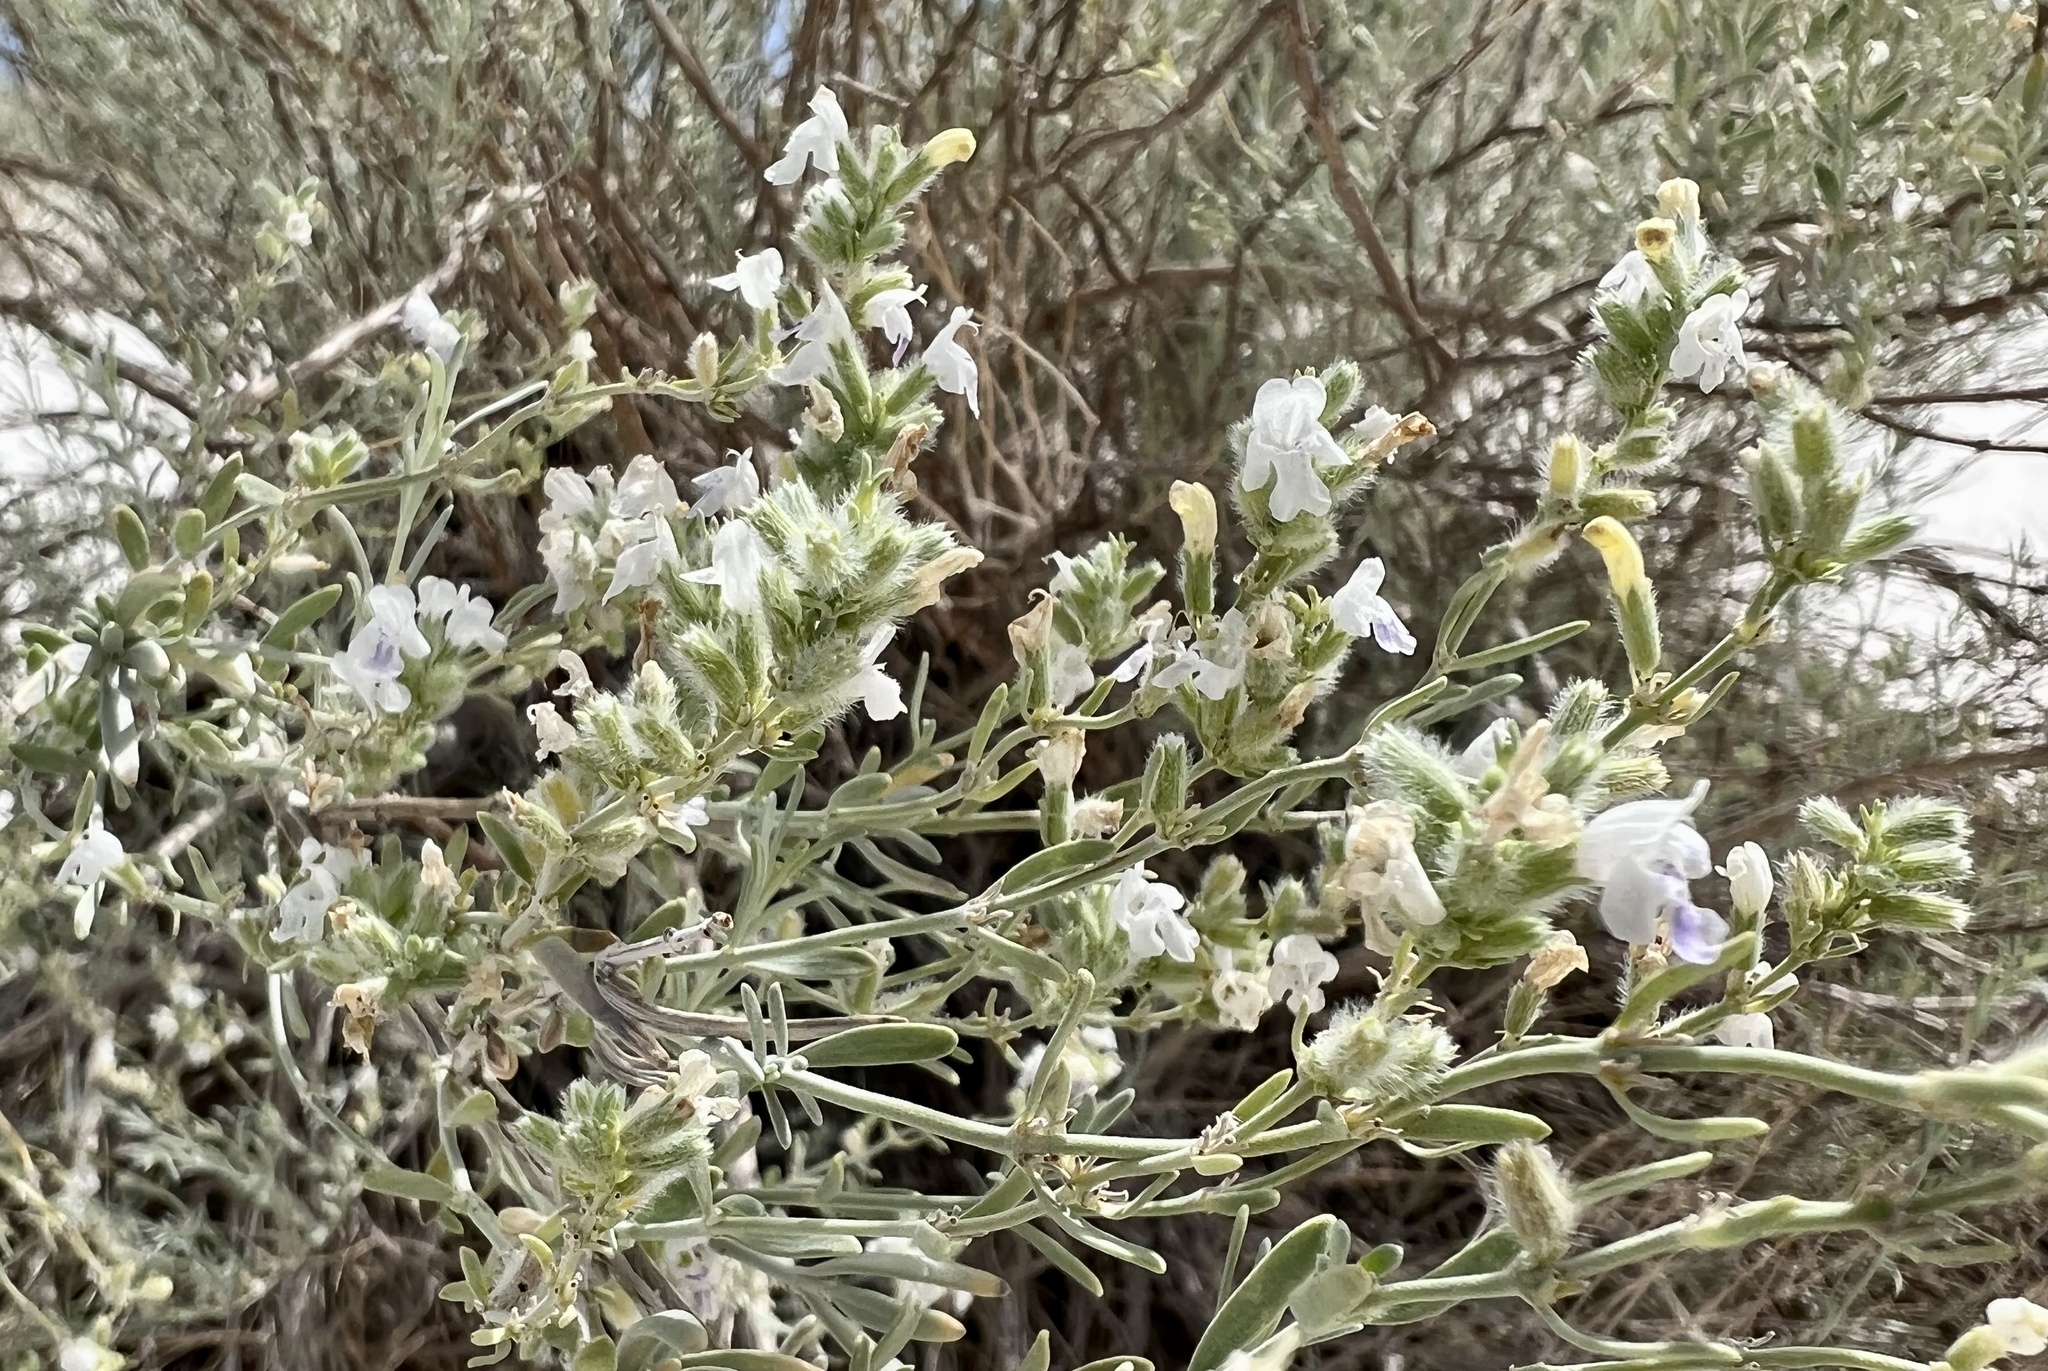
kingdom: Plantae
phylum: Tracheophyta
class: Magnoliopsida
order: Lamiales
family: Lamiaceae
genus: Poliomintha
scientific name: Poliomintha incana
